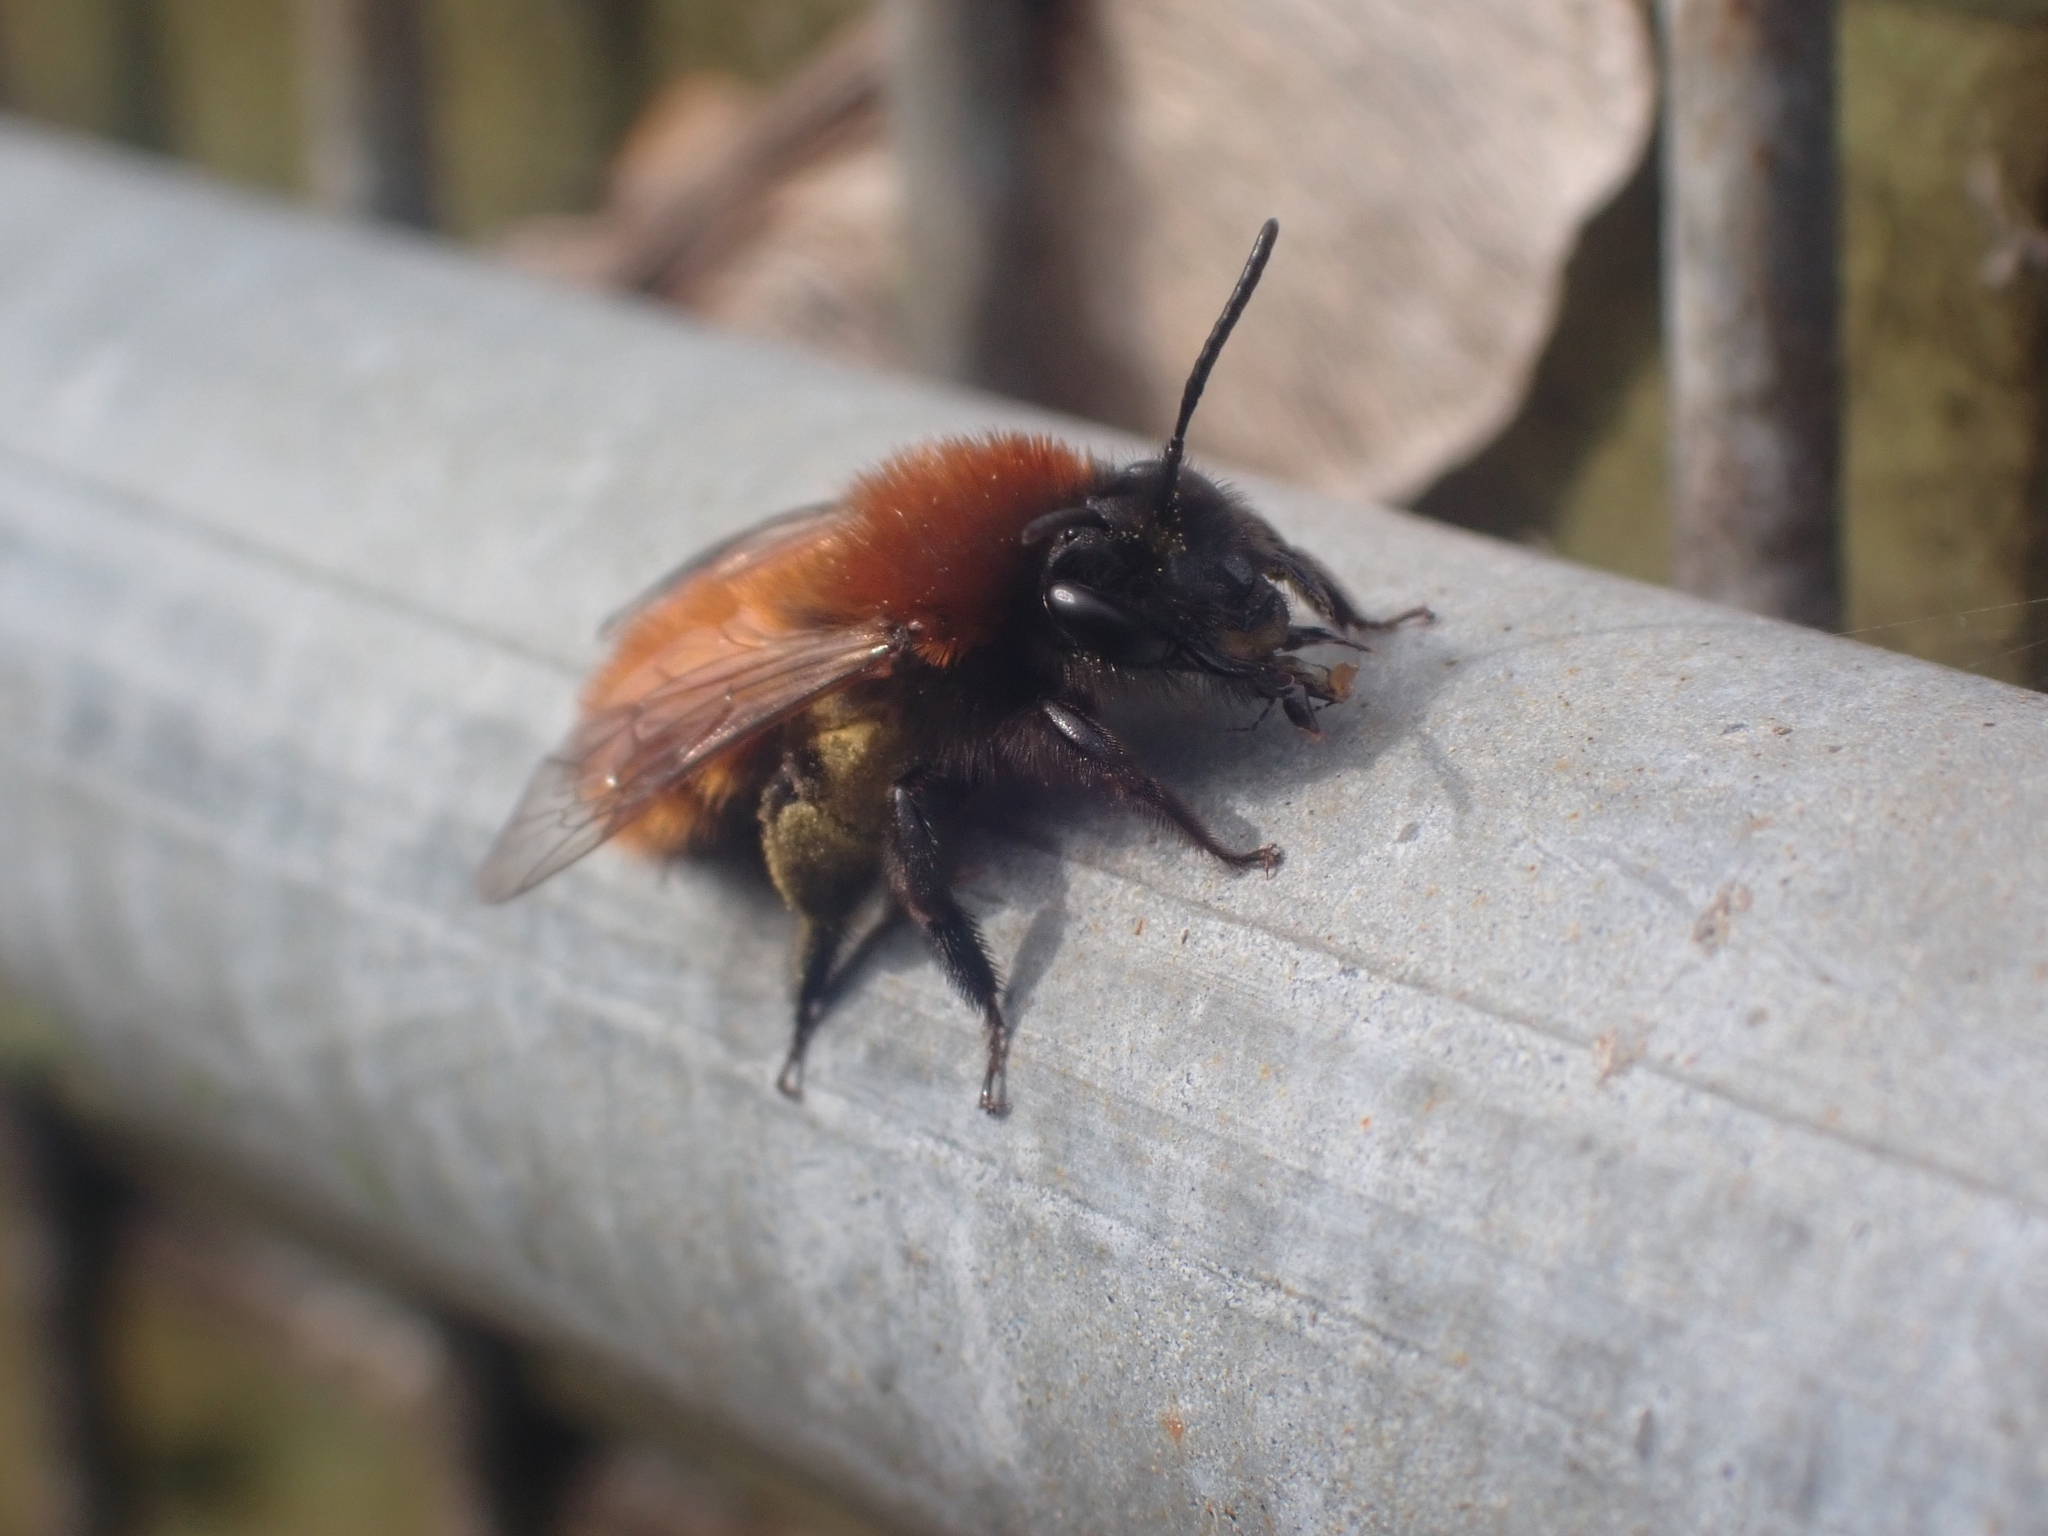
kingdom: Animalia
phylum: Arthropoda
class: Insecta
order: Hymenoptera
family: Andrenidae
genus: Andrena
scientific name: Andrena fulva
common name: Tawny mining bee
